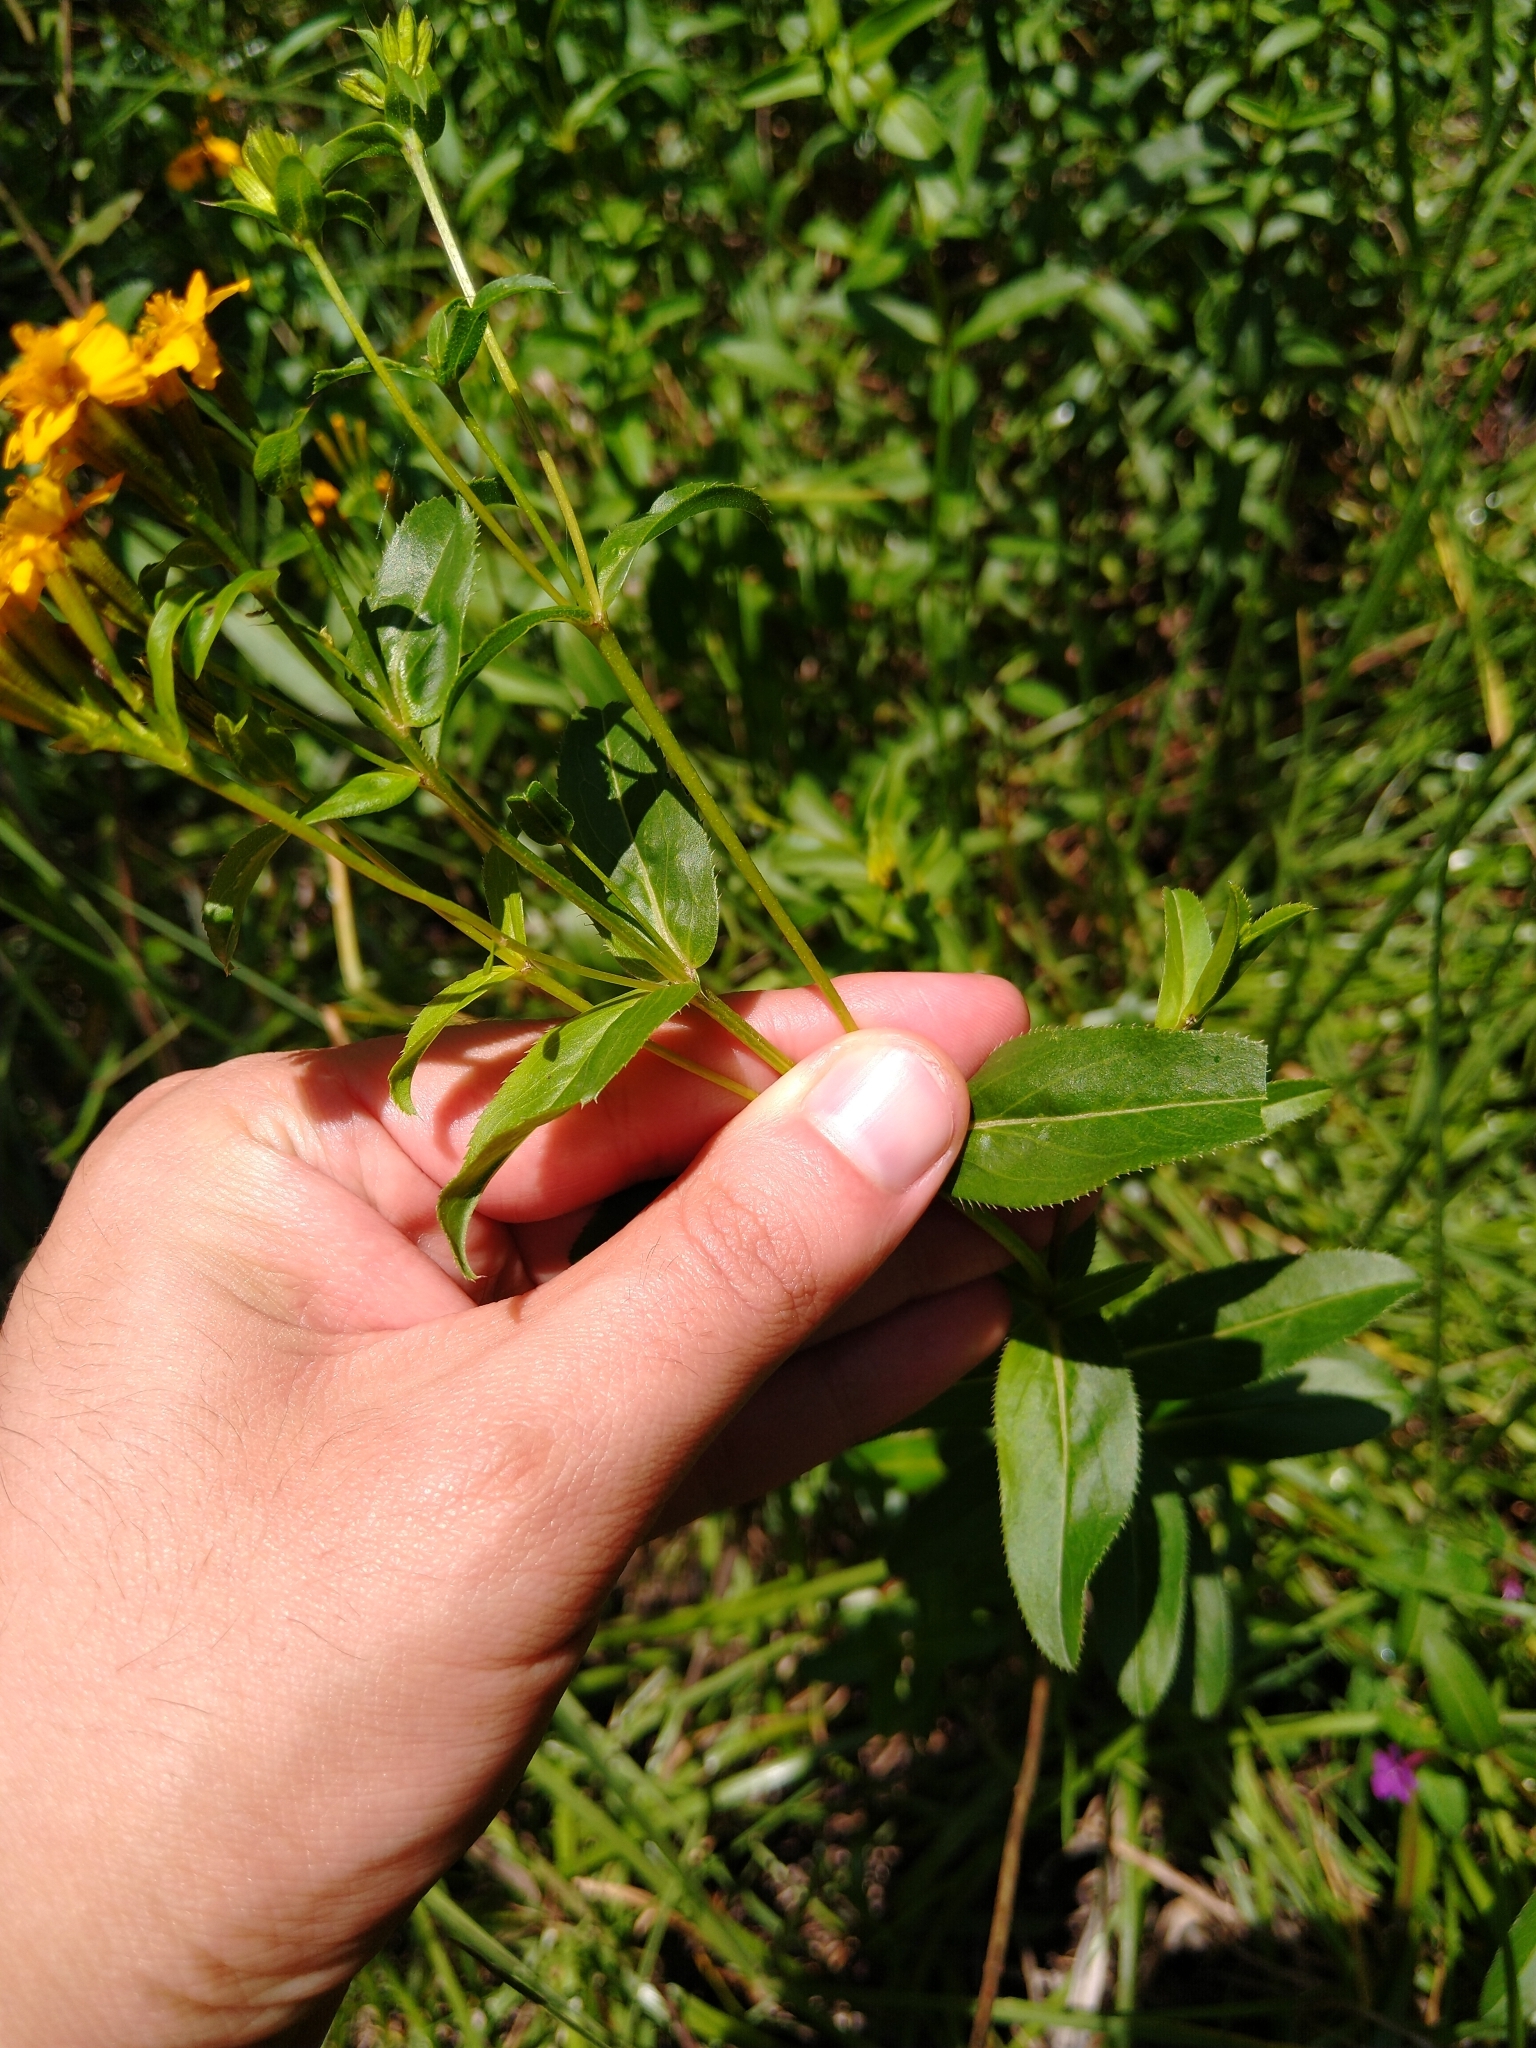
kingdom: Plantae
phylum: Tracheophyta
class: Magnoliopsida
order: Asterales
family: Asteraceae
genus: Tagetes
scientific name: Tagetes lucida
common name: Sweetscented marigold
